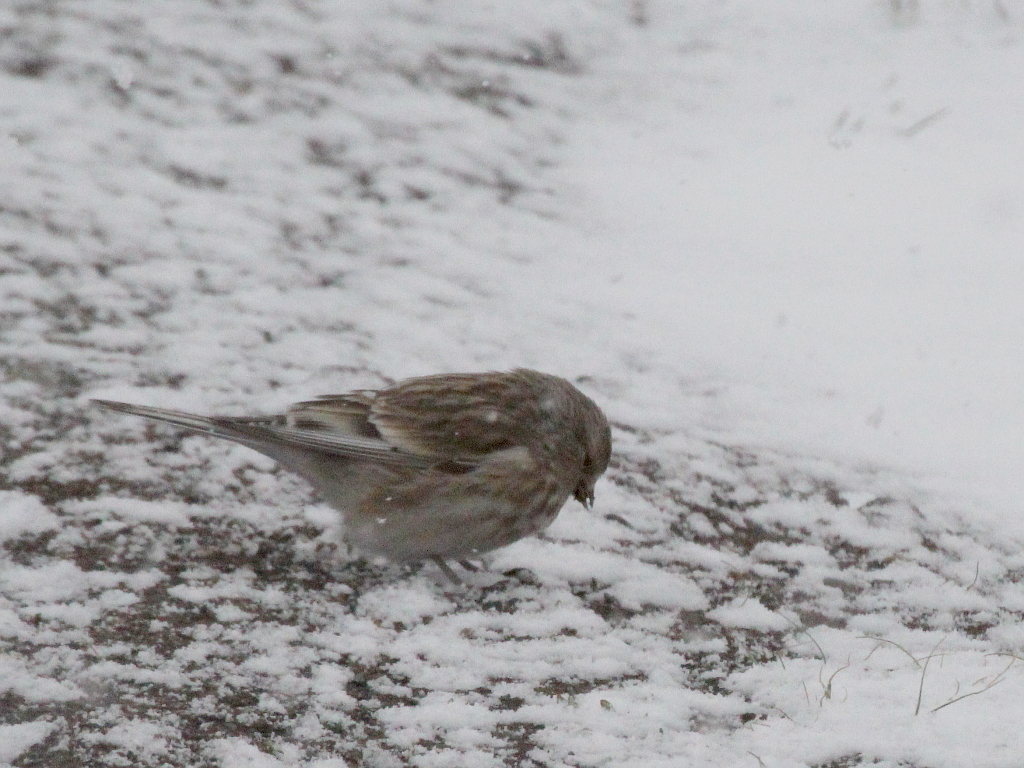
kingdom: Animalia
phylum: Chordata
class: Aves
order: Passeriformes
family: Fringillidae
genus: Linaria
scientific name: Linaria flavirostris
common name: Twite
